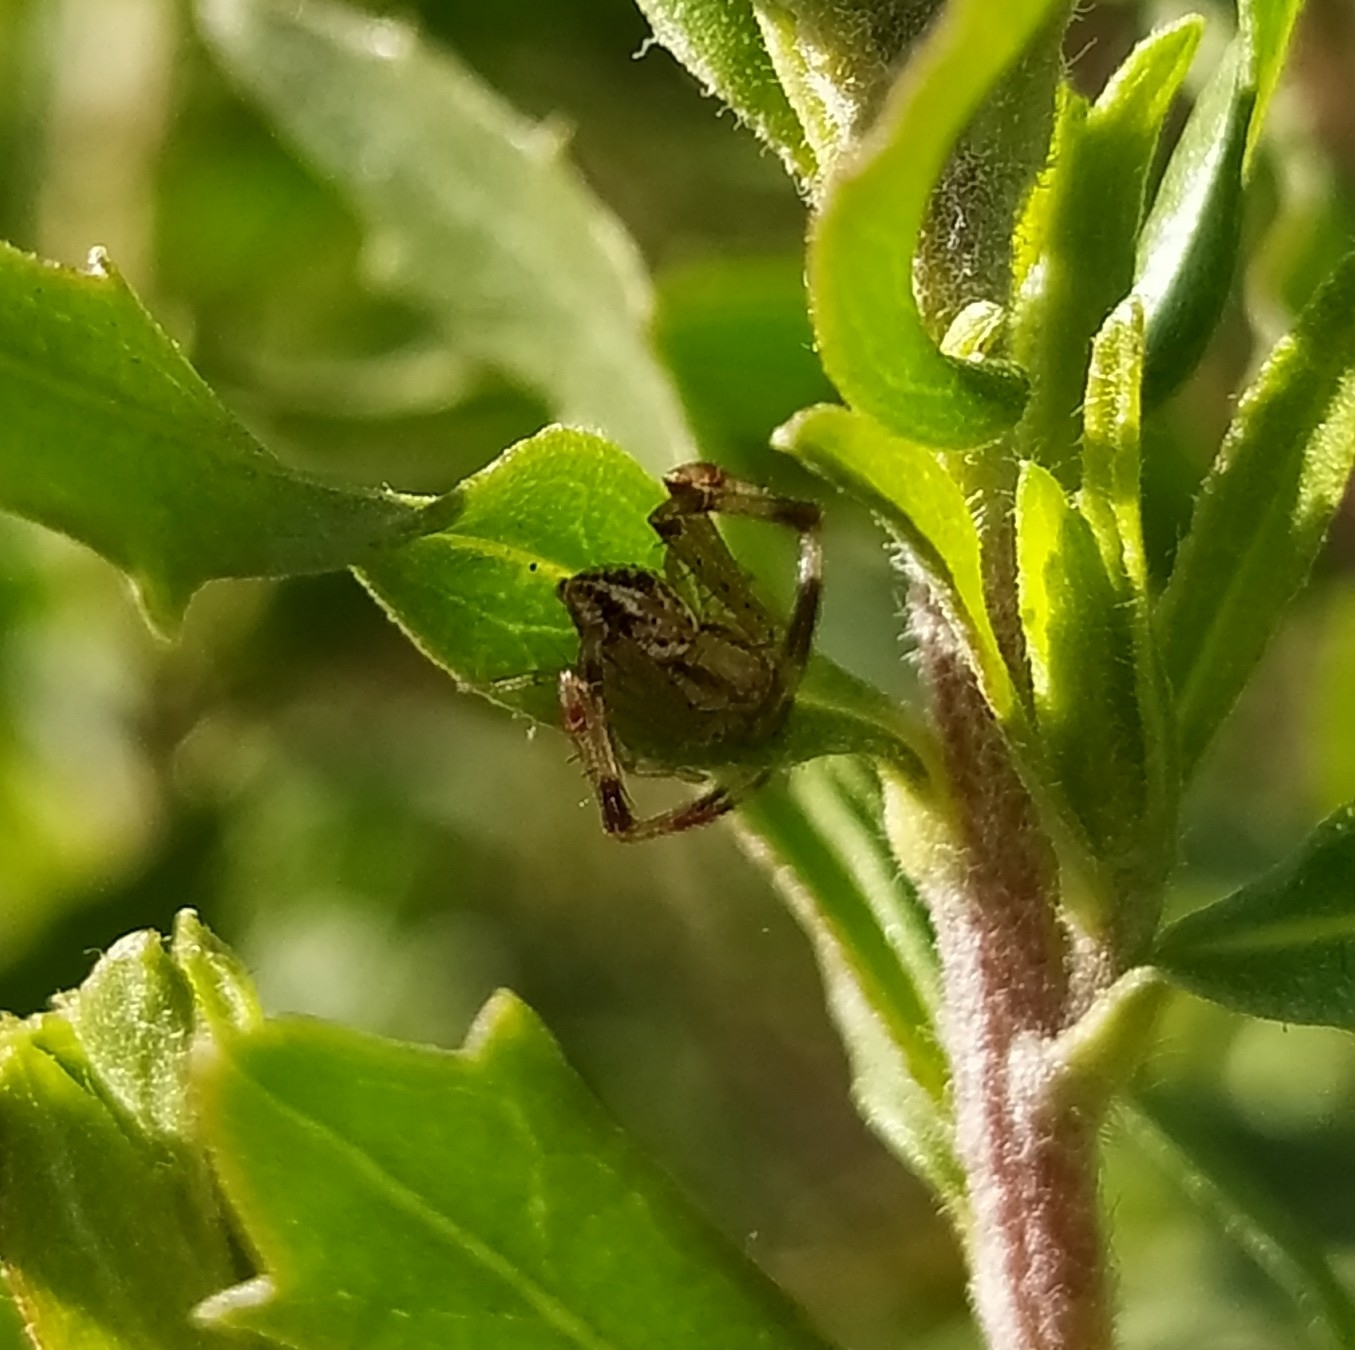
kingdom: Animalia
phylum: Arthropoda
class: Arachnida
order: Araneae
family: Thomisidae
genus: Misumenops
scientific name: Misumenops
